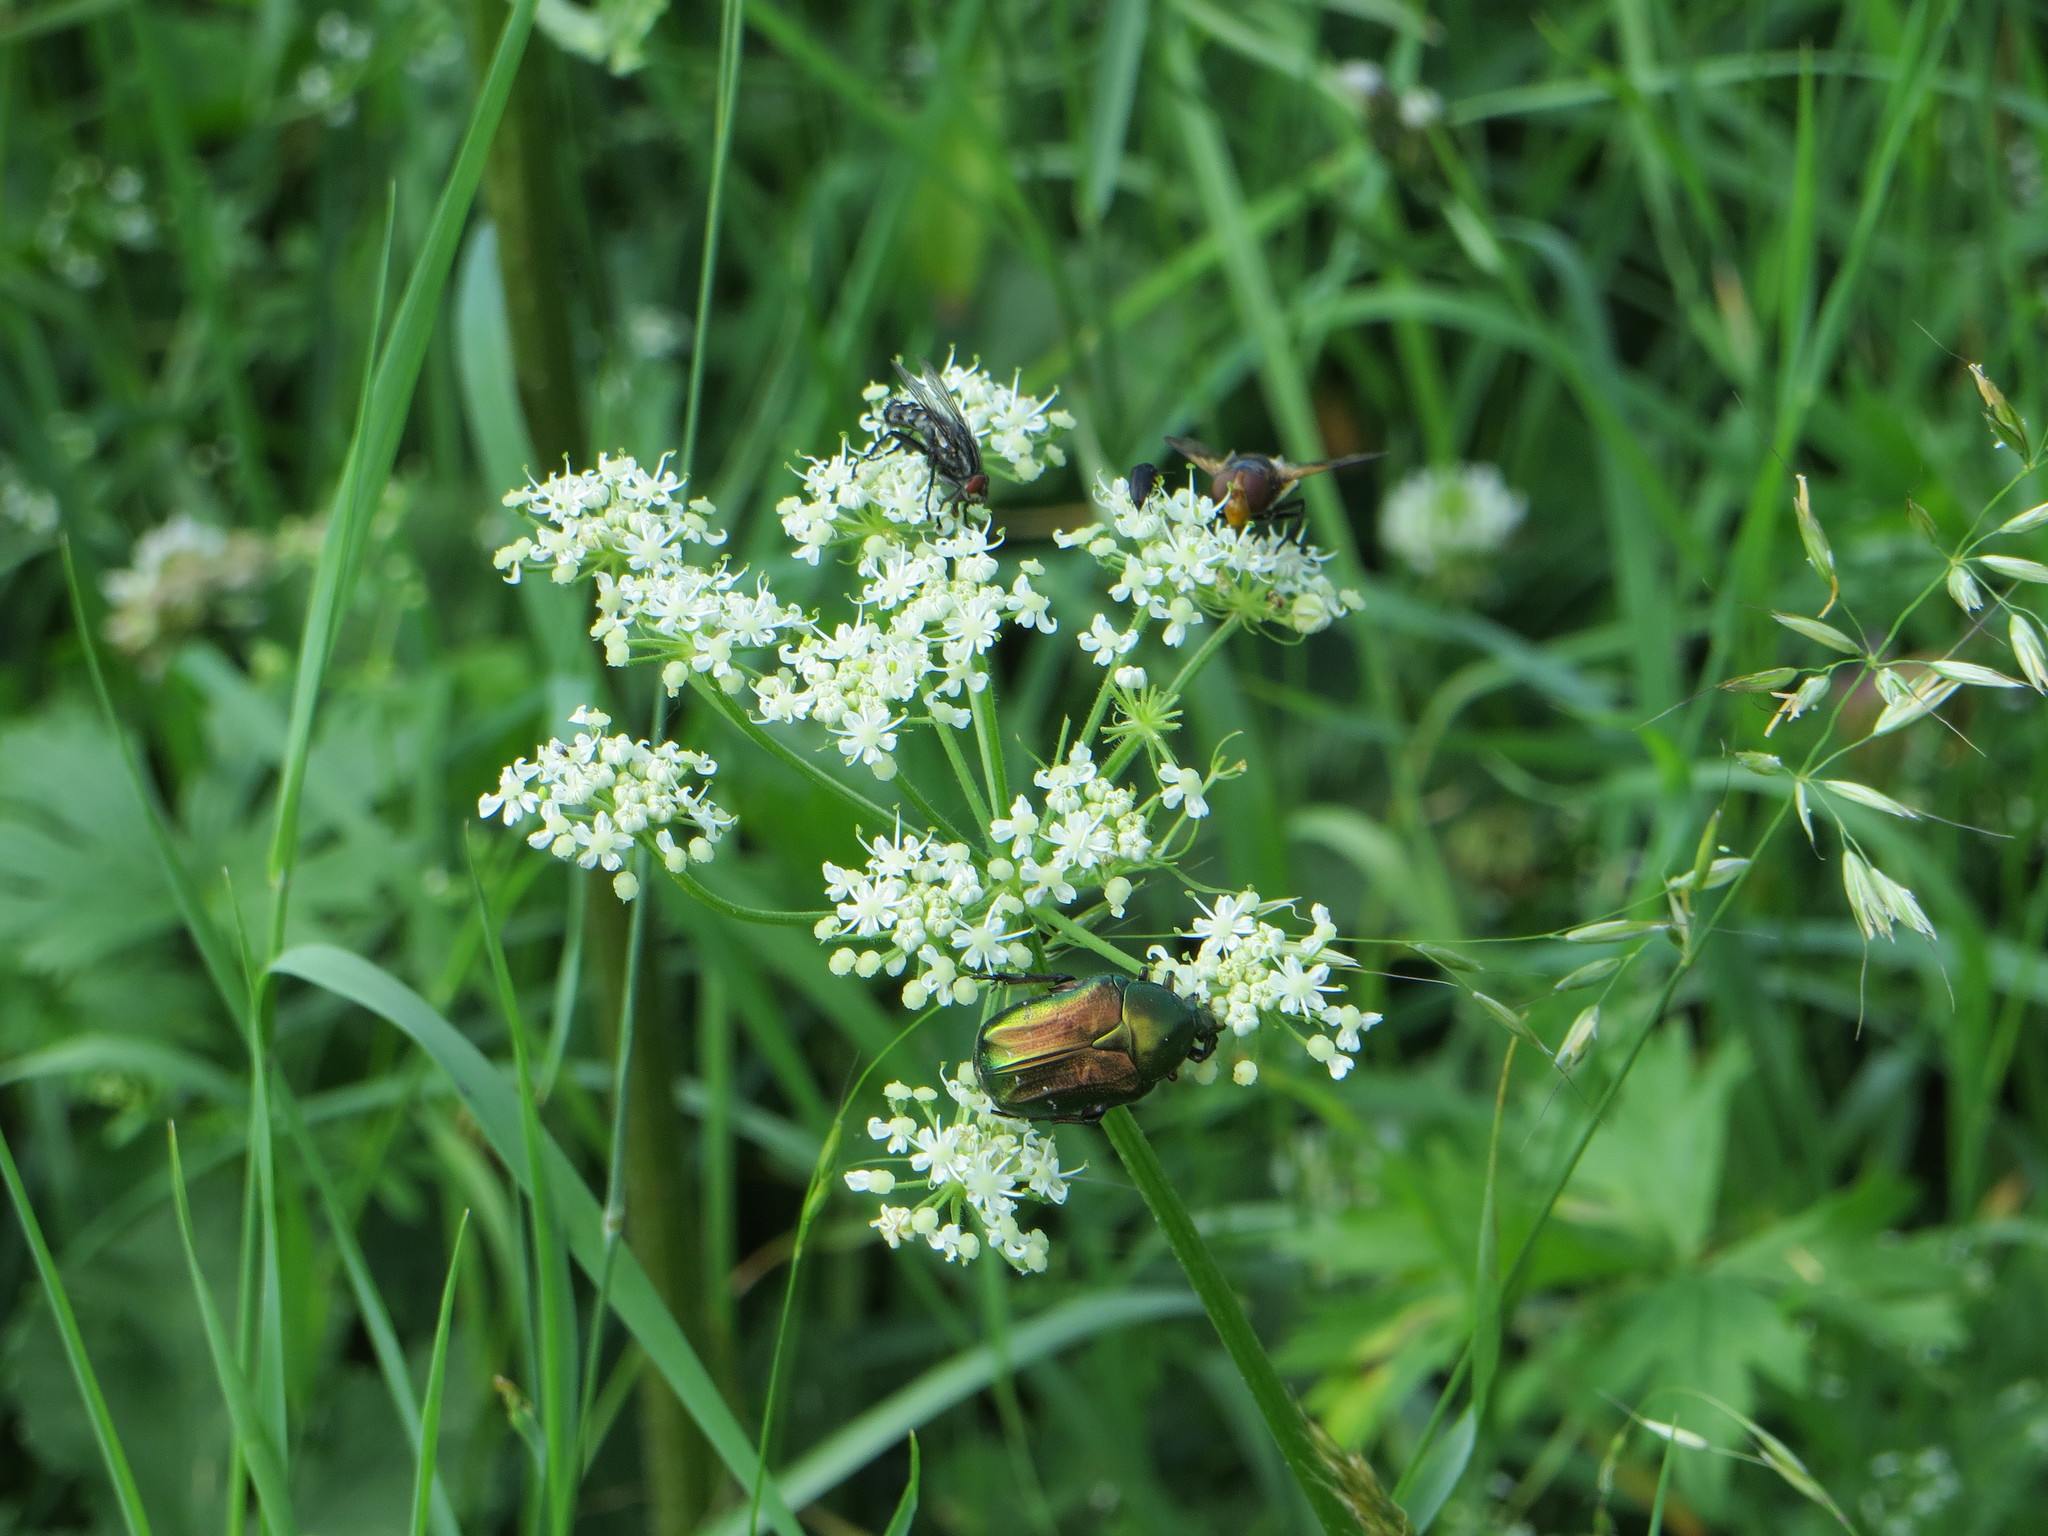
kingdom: Animalia
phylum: Arthropoda
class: Insecta
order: Coleoptera
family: Scarabaeidae
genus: Cetonia
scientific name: Cetonia aurata
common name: Rose chafer
